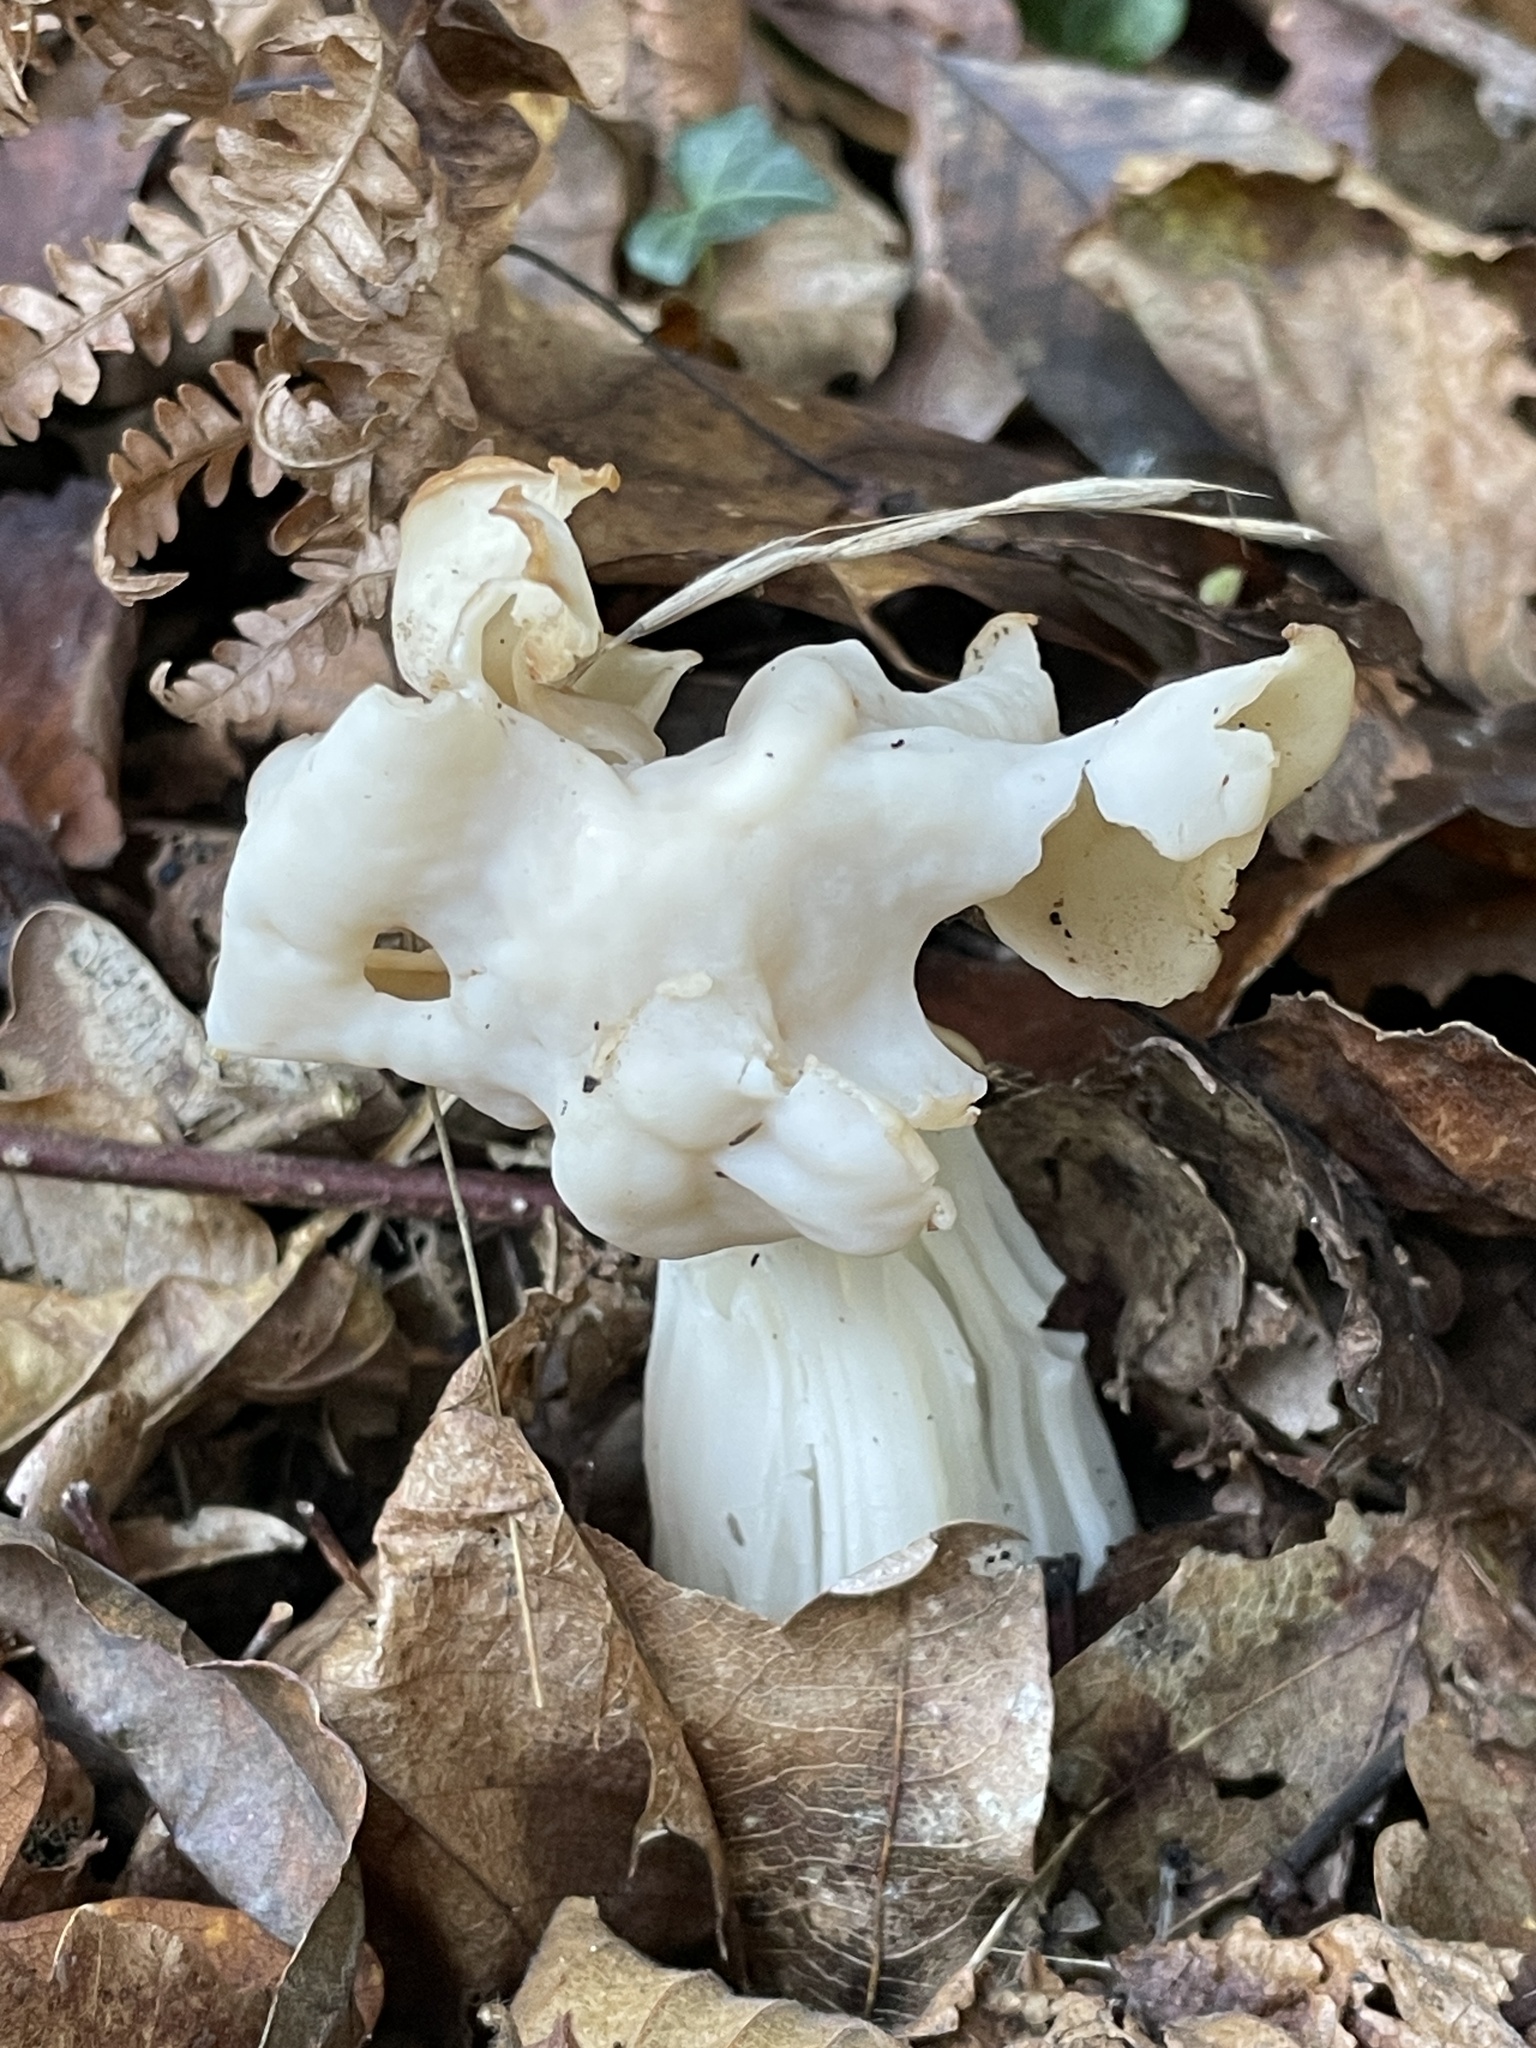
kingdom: Fungi
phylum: Ascomycota
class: Pezizomycetes
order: Pezizales
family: Helvellaceae
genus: Helvella
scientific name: Helvella crispa
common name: White saddle
